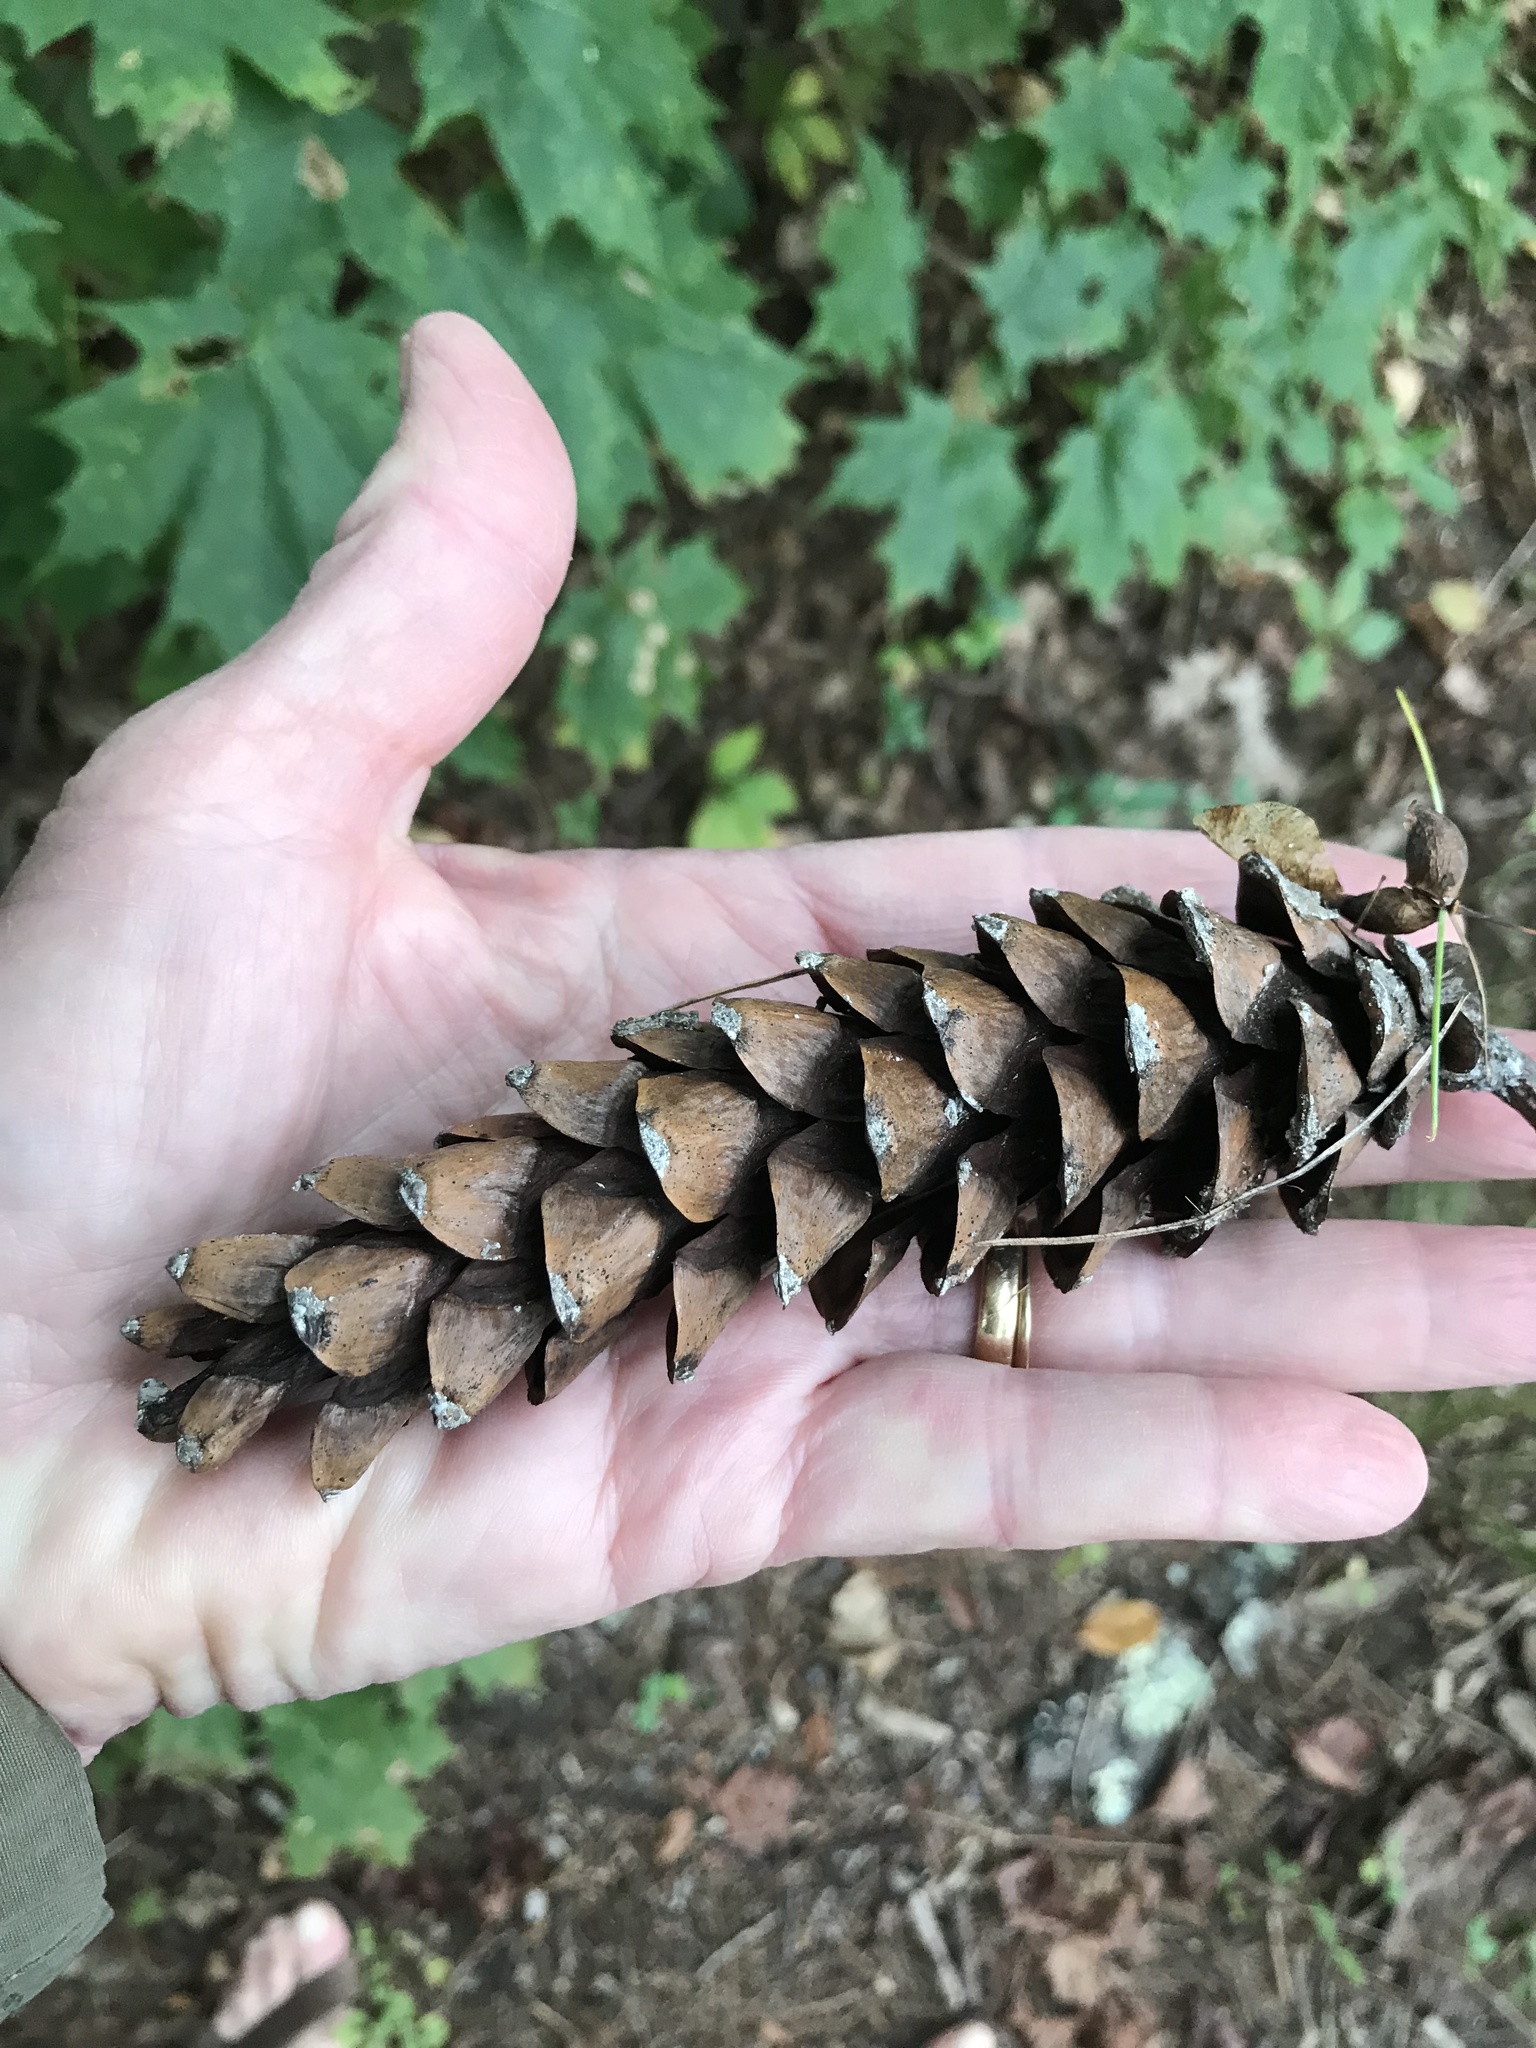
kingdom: Plantae
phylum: Tracheophyta
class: Pinopsida
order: Pinales
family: Pinaceae
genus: Pinus
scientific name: Pinus strobus
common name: Weymouth pine
